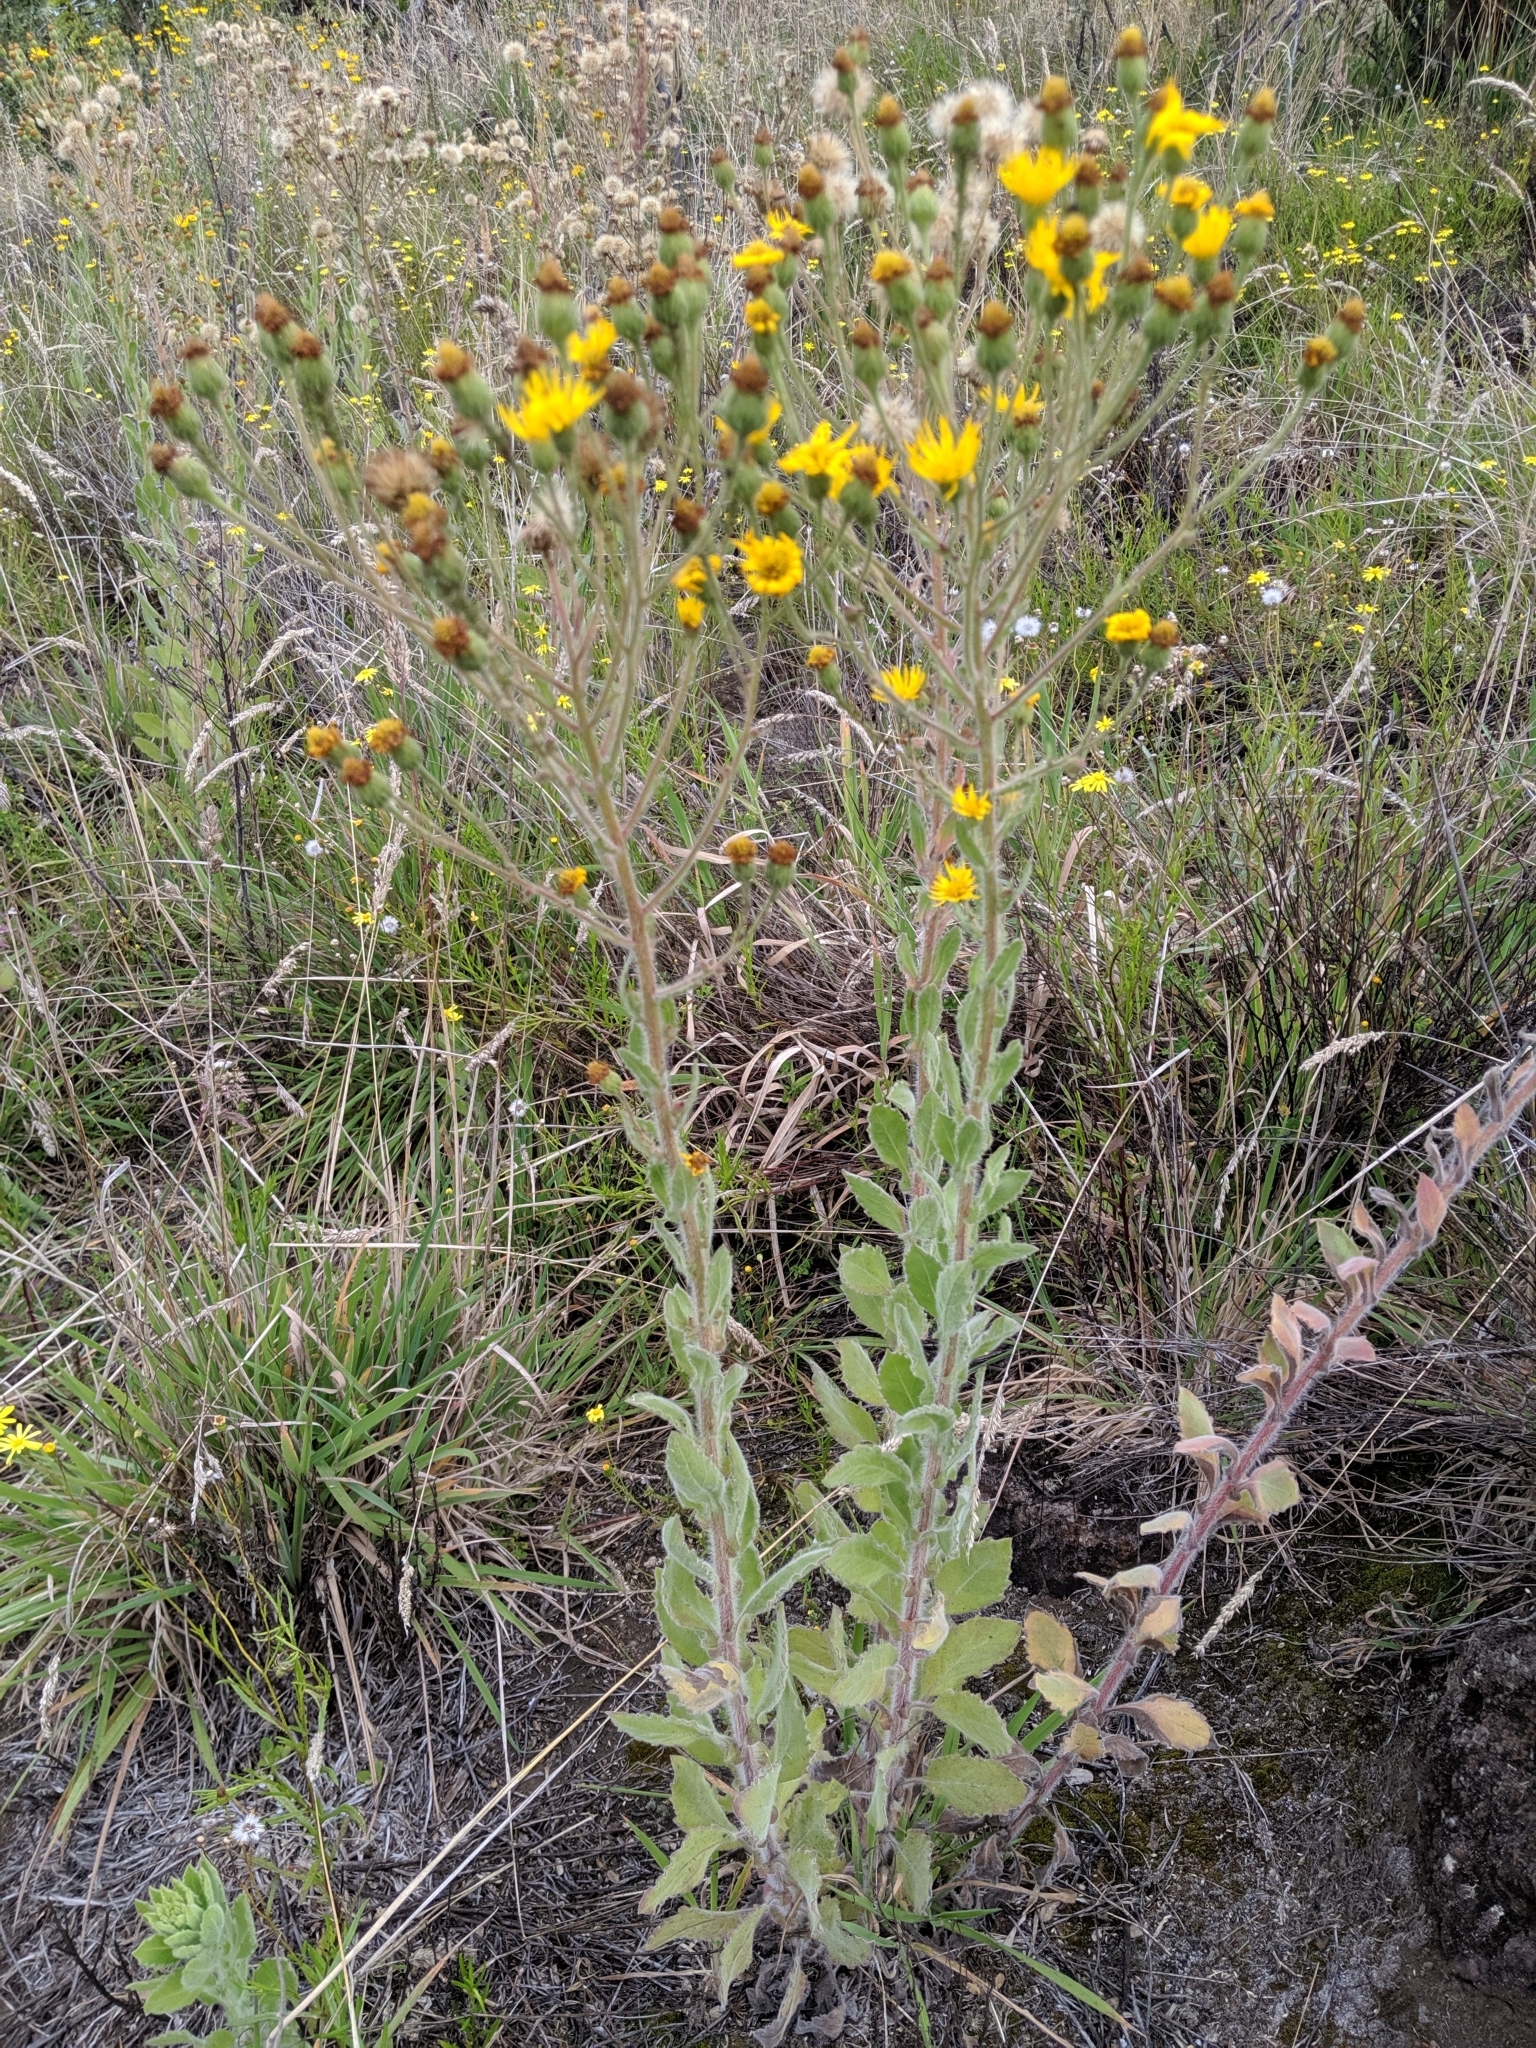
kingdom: Plantae
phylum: Tracheophyta
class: Magnoliopsida
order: Asterales
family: Asteraceae
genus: Heterotheca
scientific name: Heterotheca grandiflora
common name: Telegraphweed
